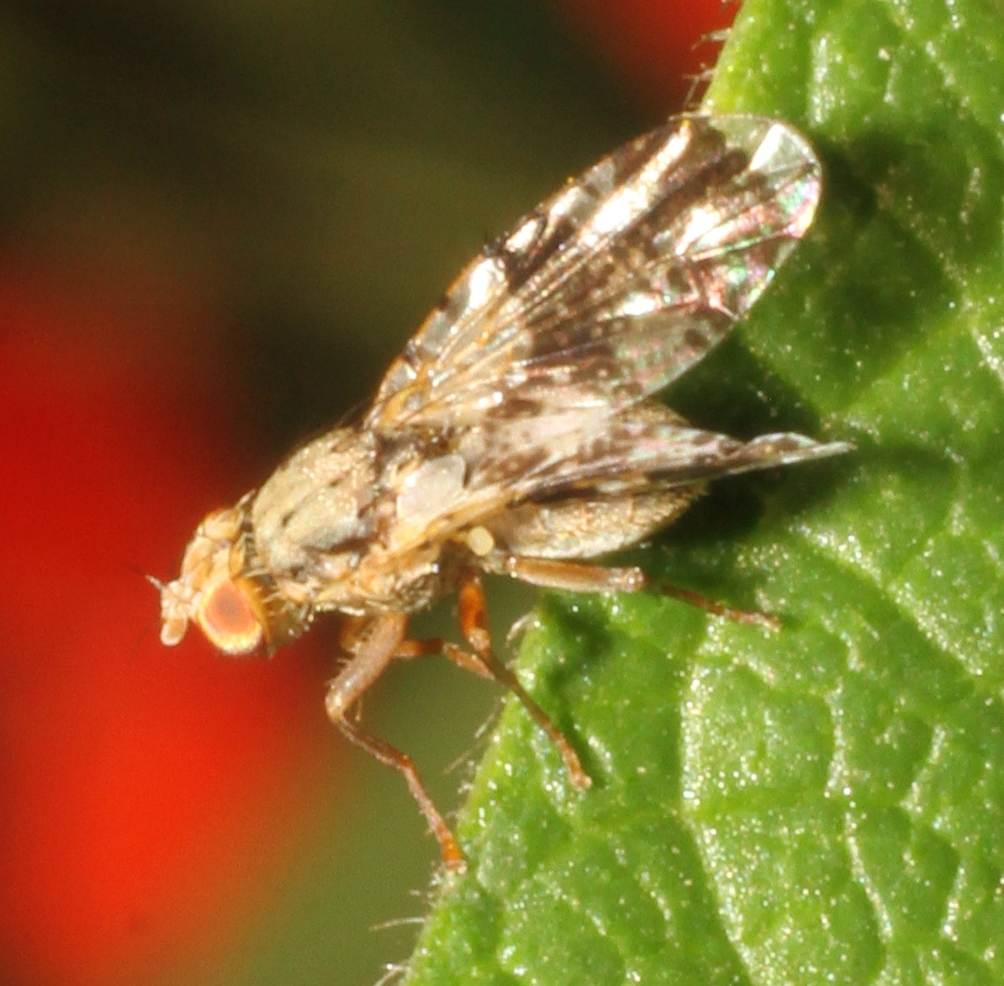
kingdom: Animalia
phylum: Arthropoda
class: Insecta
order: Diptera
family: Tephritidae
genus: Tephritis
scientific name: Tephritis formosa
